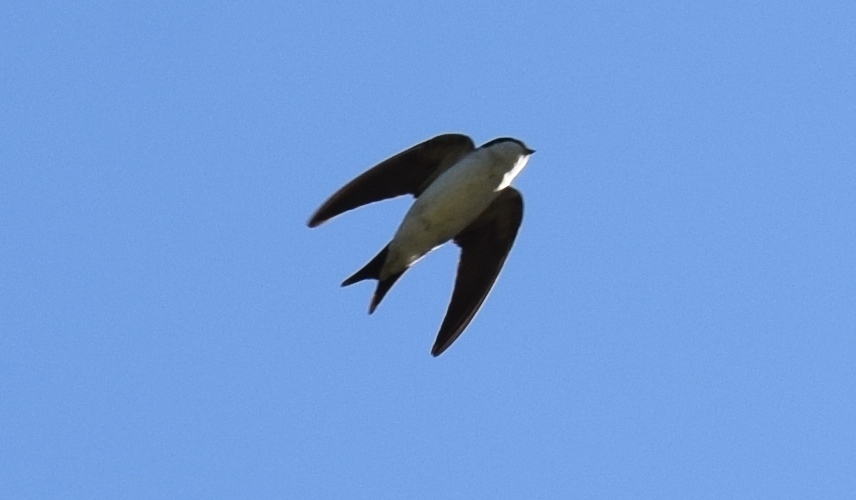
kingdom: Animalia
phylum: Chordata
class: Aves
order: Passeriformes
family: Hirundinidae
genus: Delichon
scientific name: Delichon urbicum
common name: Common house martin
